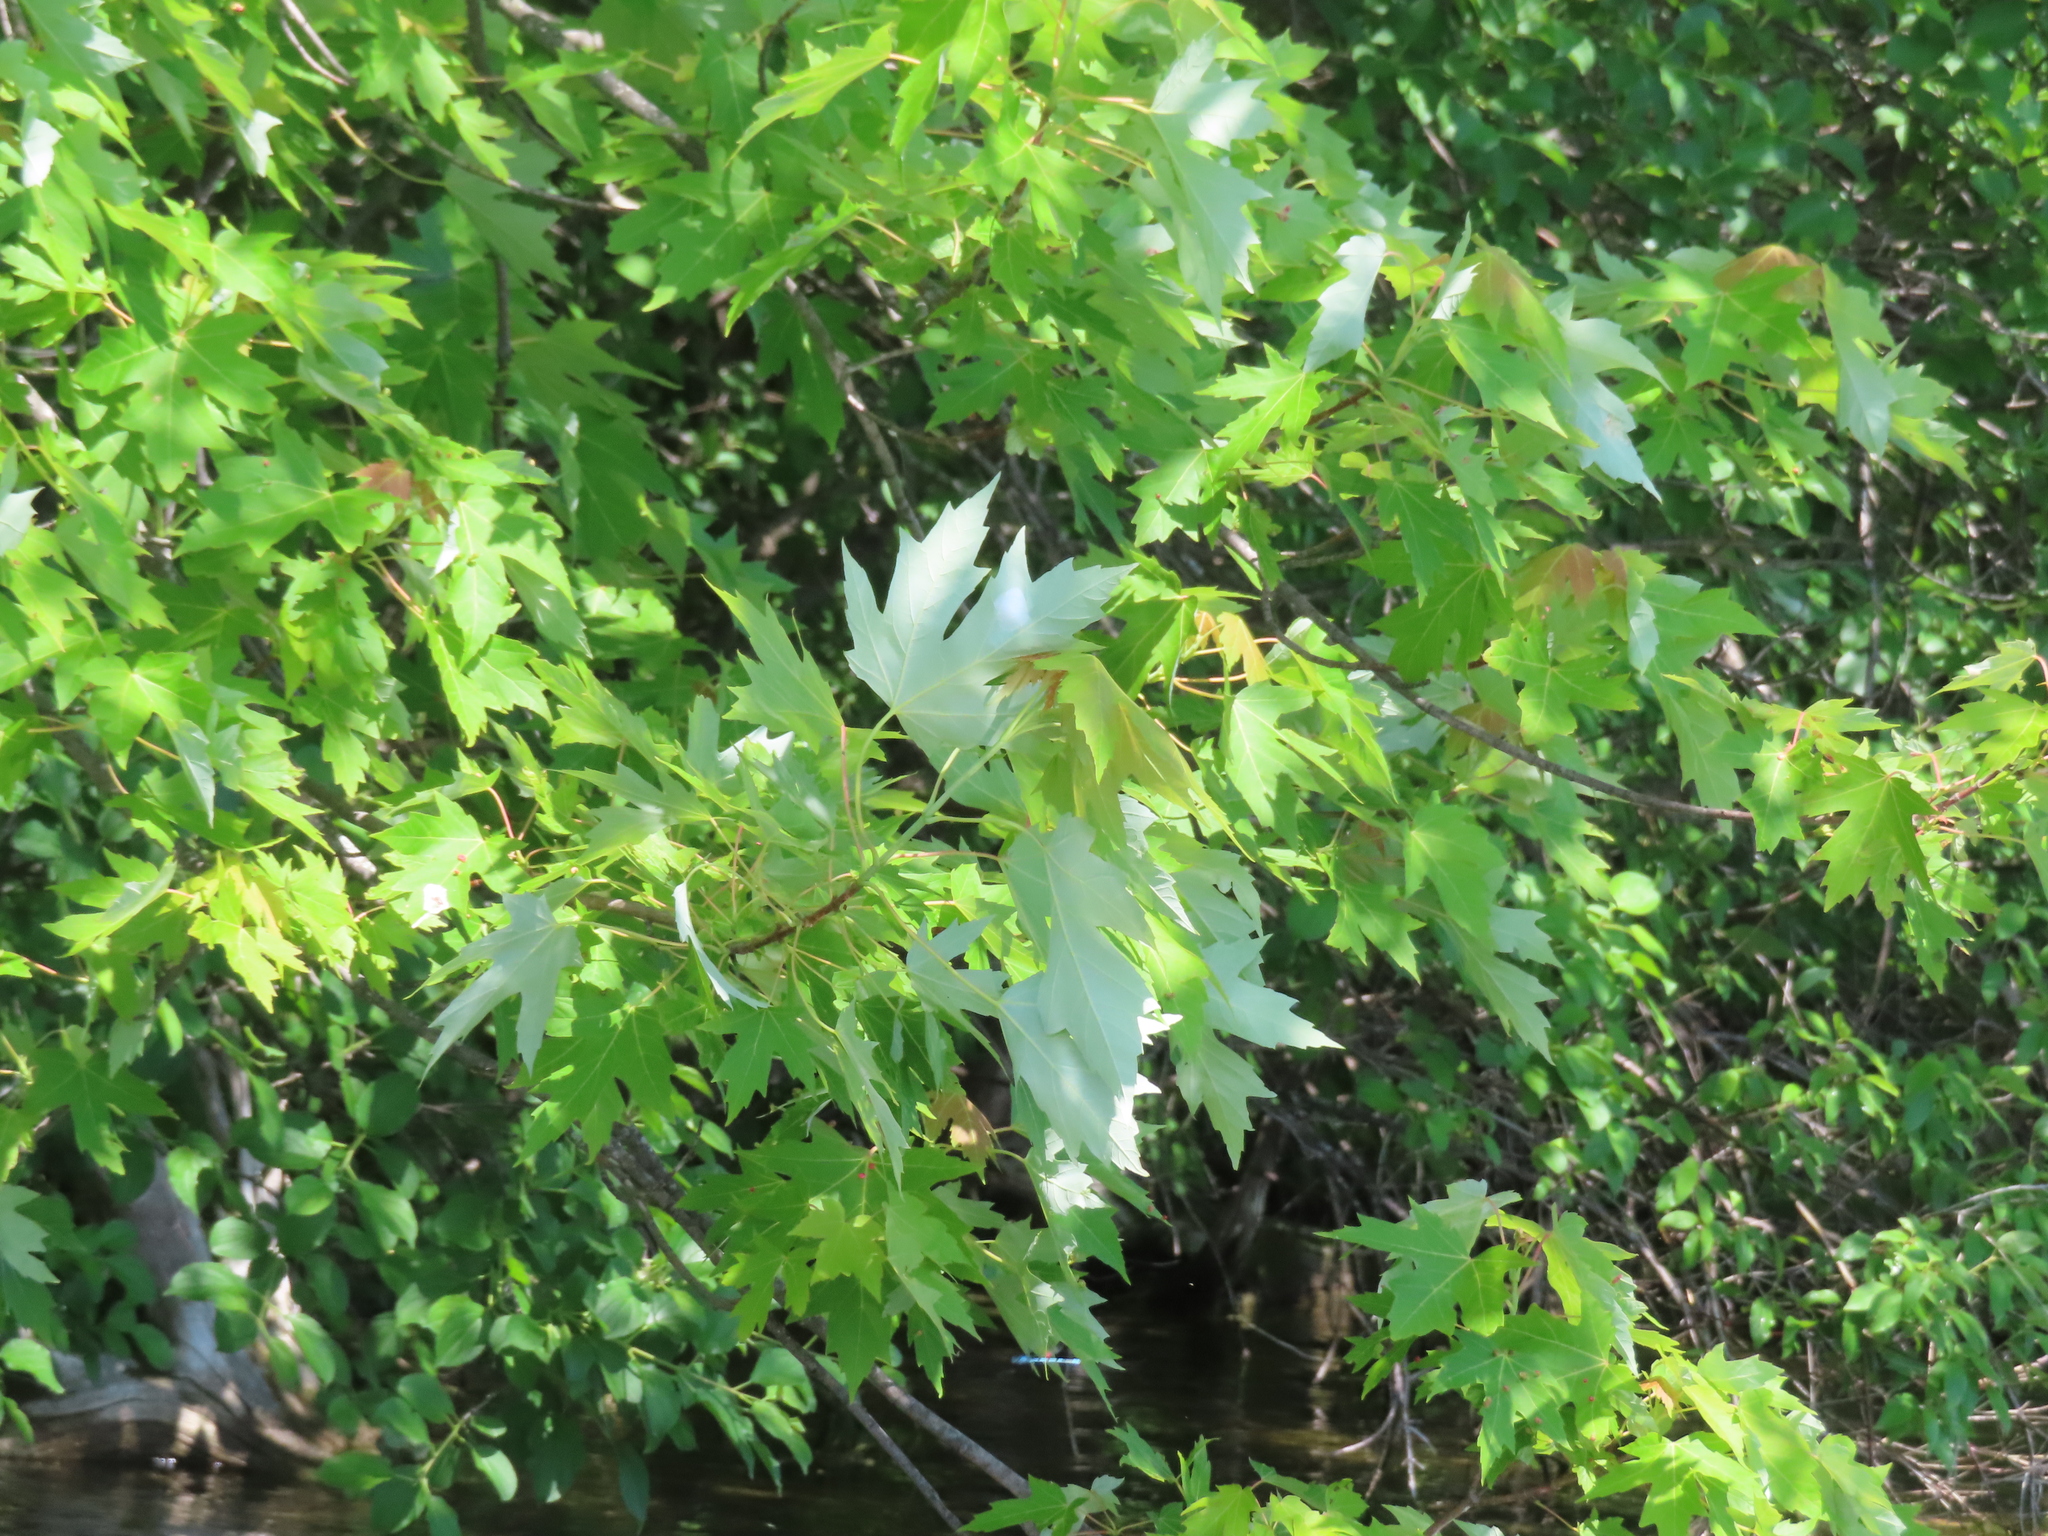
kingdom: Plantae
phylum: Tracheophyta
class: Magnoliopsida
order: Sapindales
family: Sapindaceae
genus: Acer
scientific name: Acer saccharinum
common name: Silver maple
